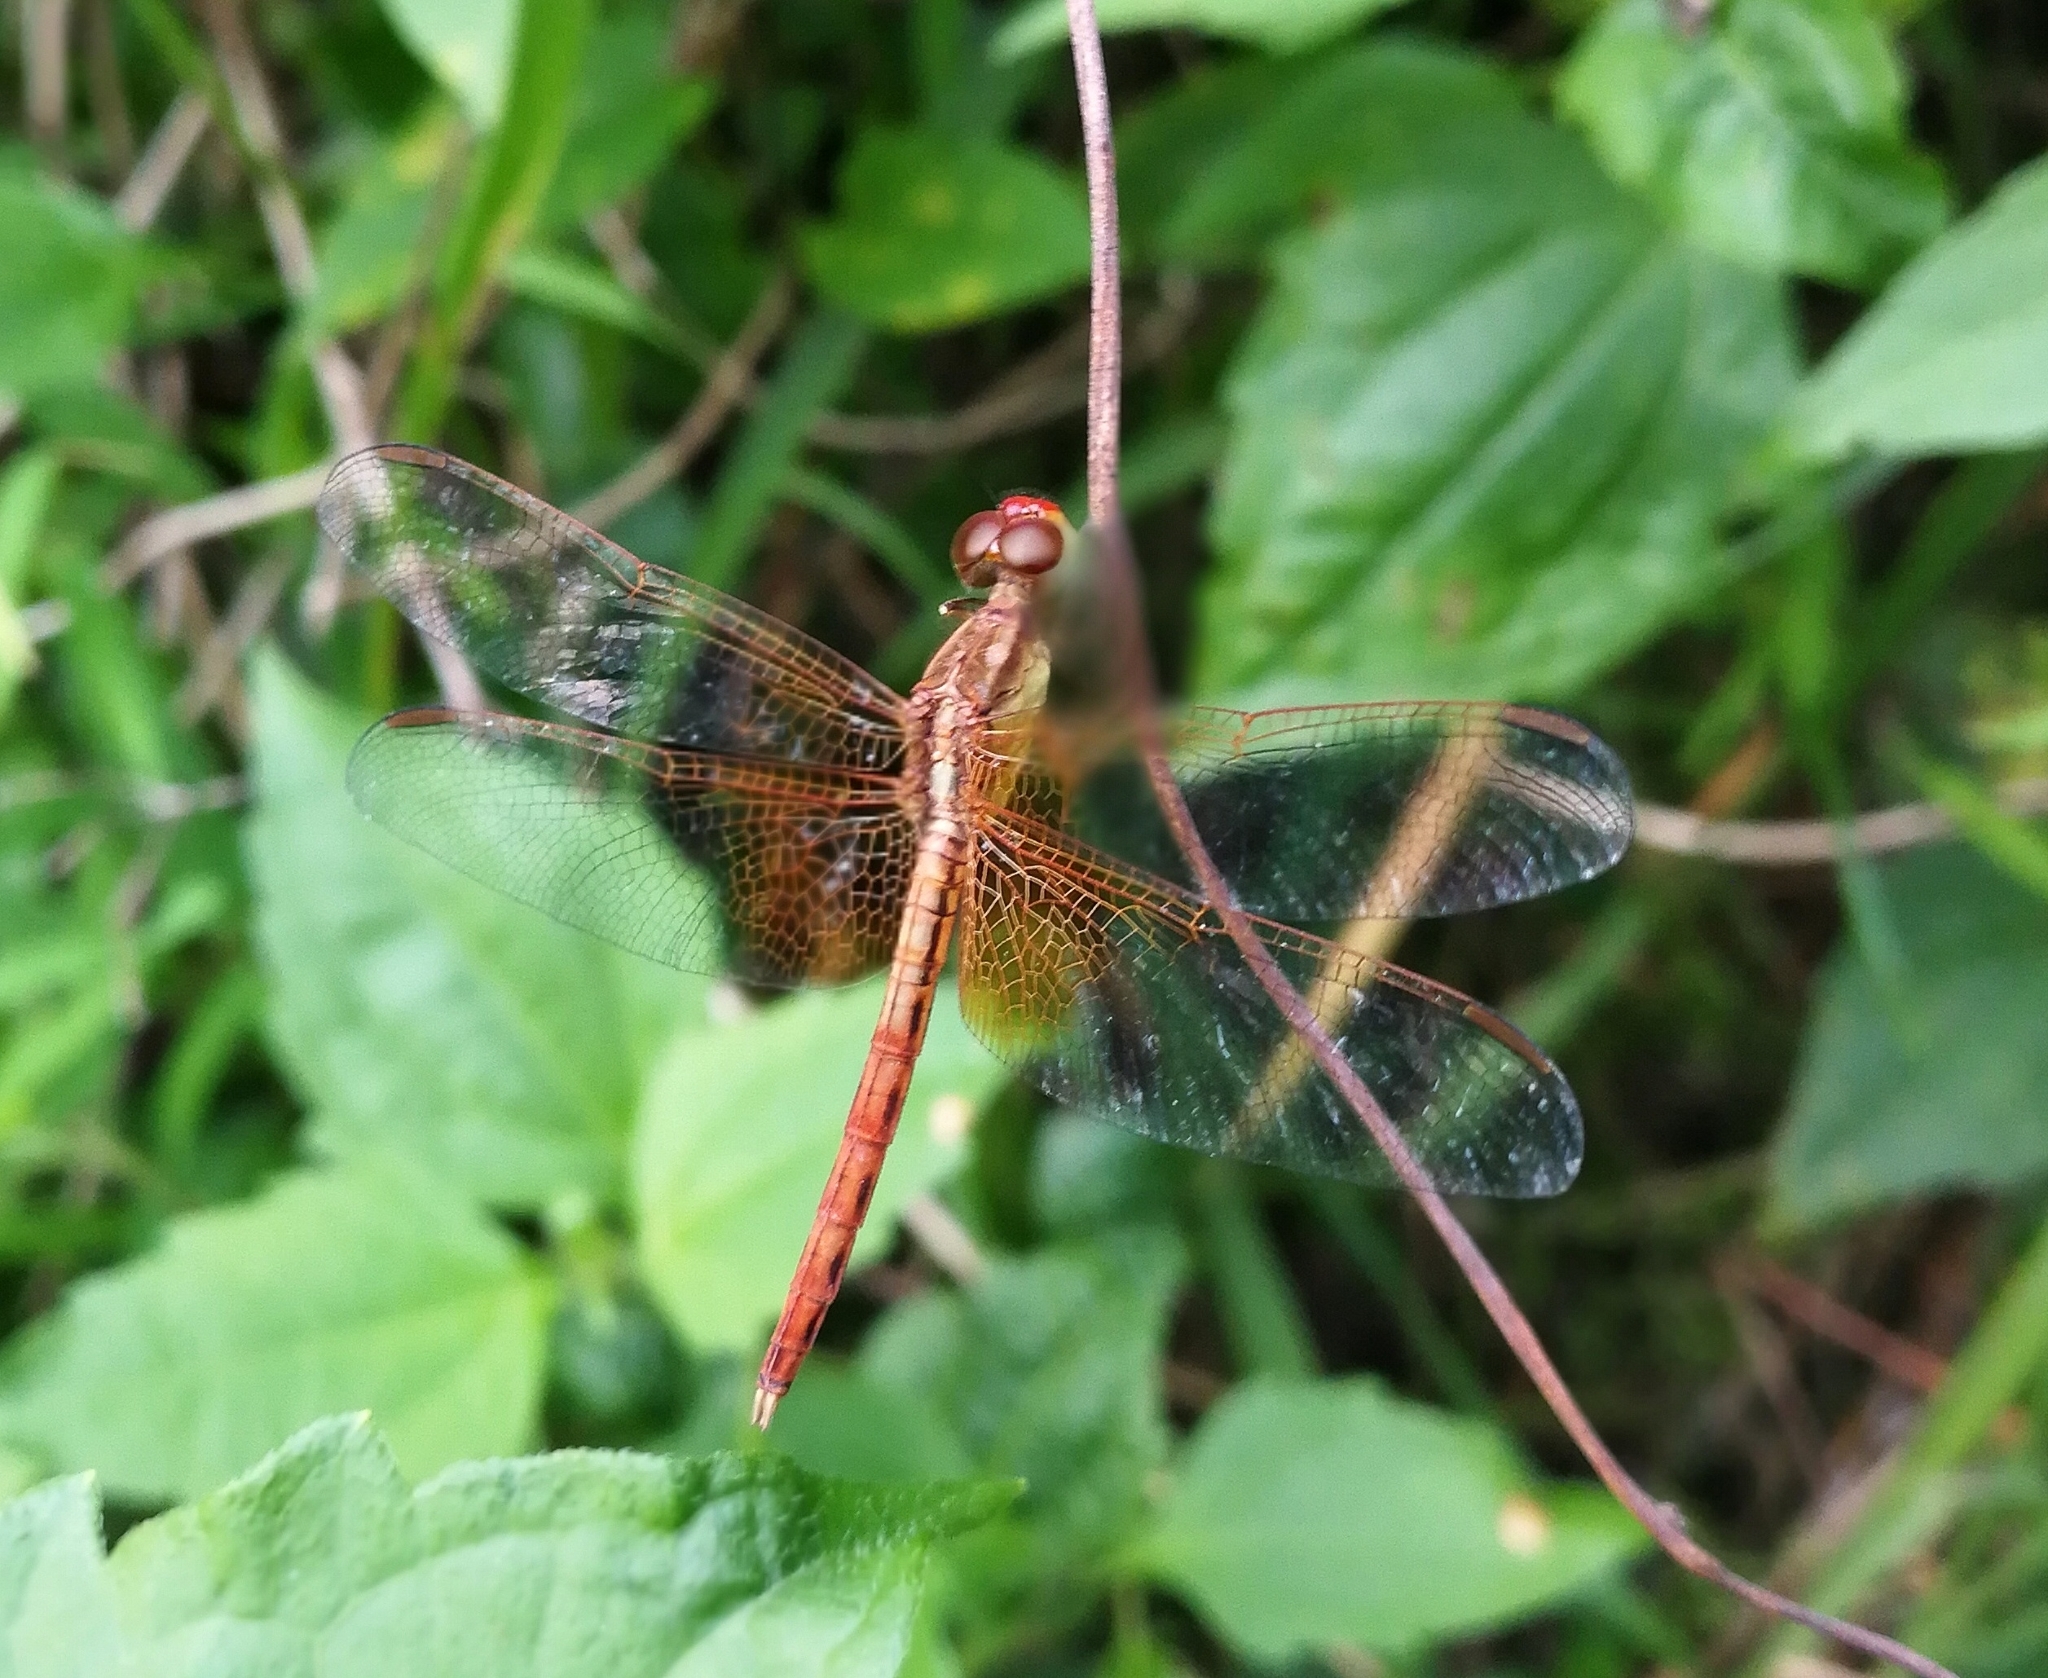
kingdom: Animalia
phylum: Arthropoda
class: Insecta
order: Odonata
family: Libellulidae
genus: Neurothemis
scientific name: Neurothemis intermedia
